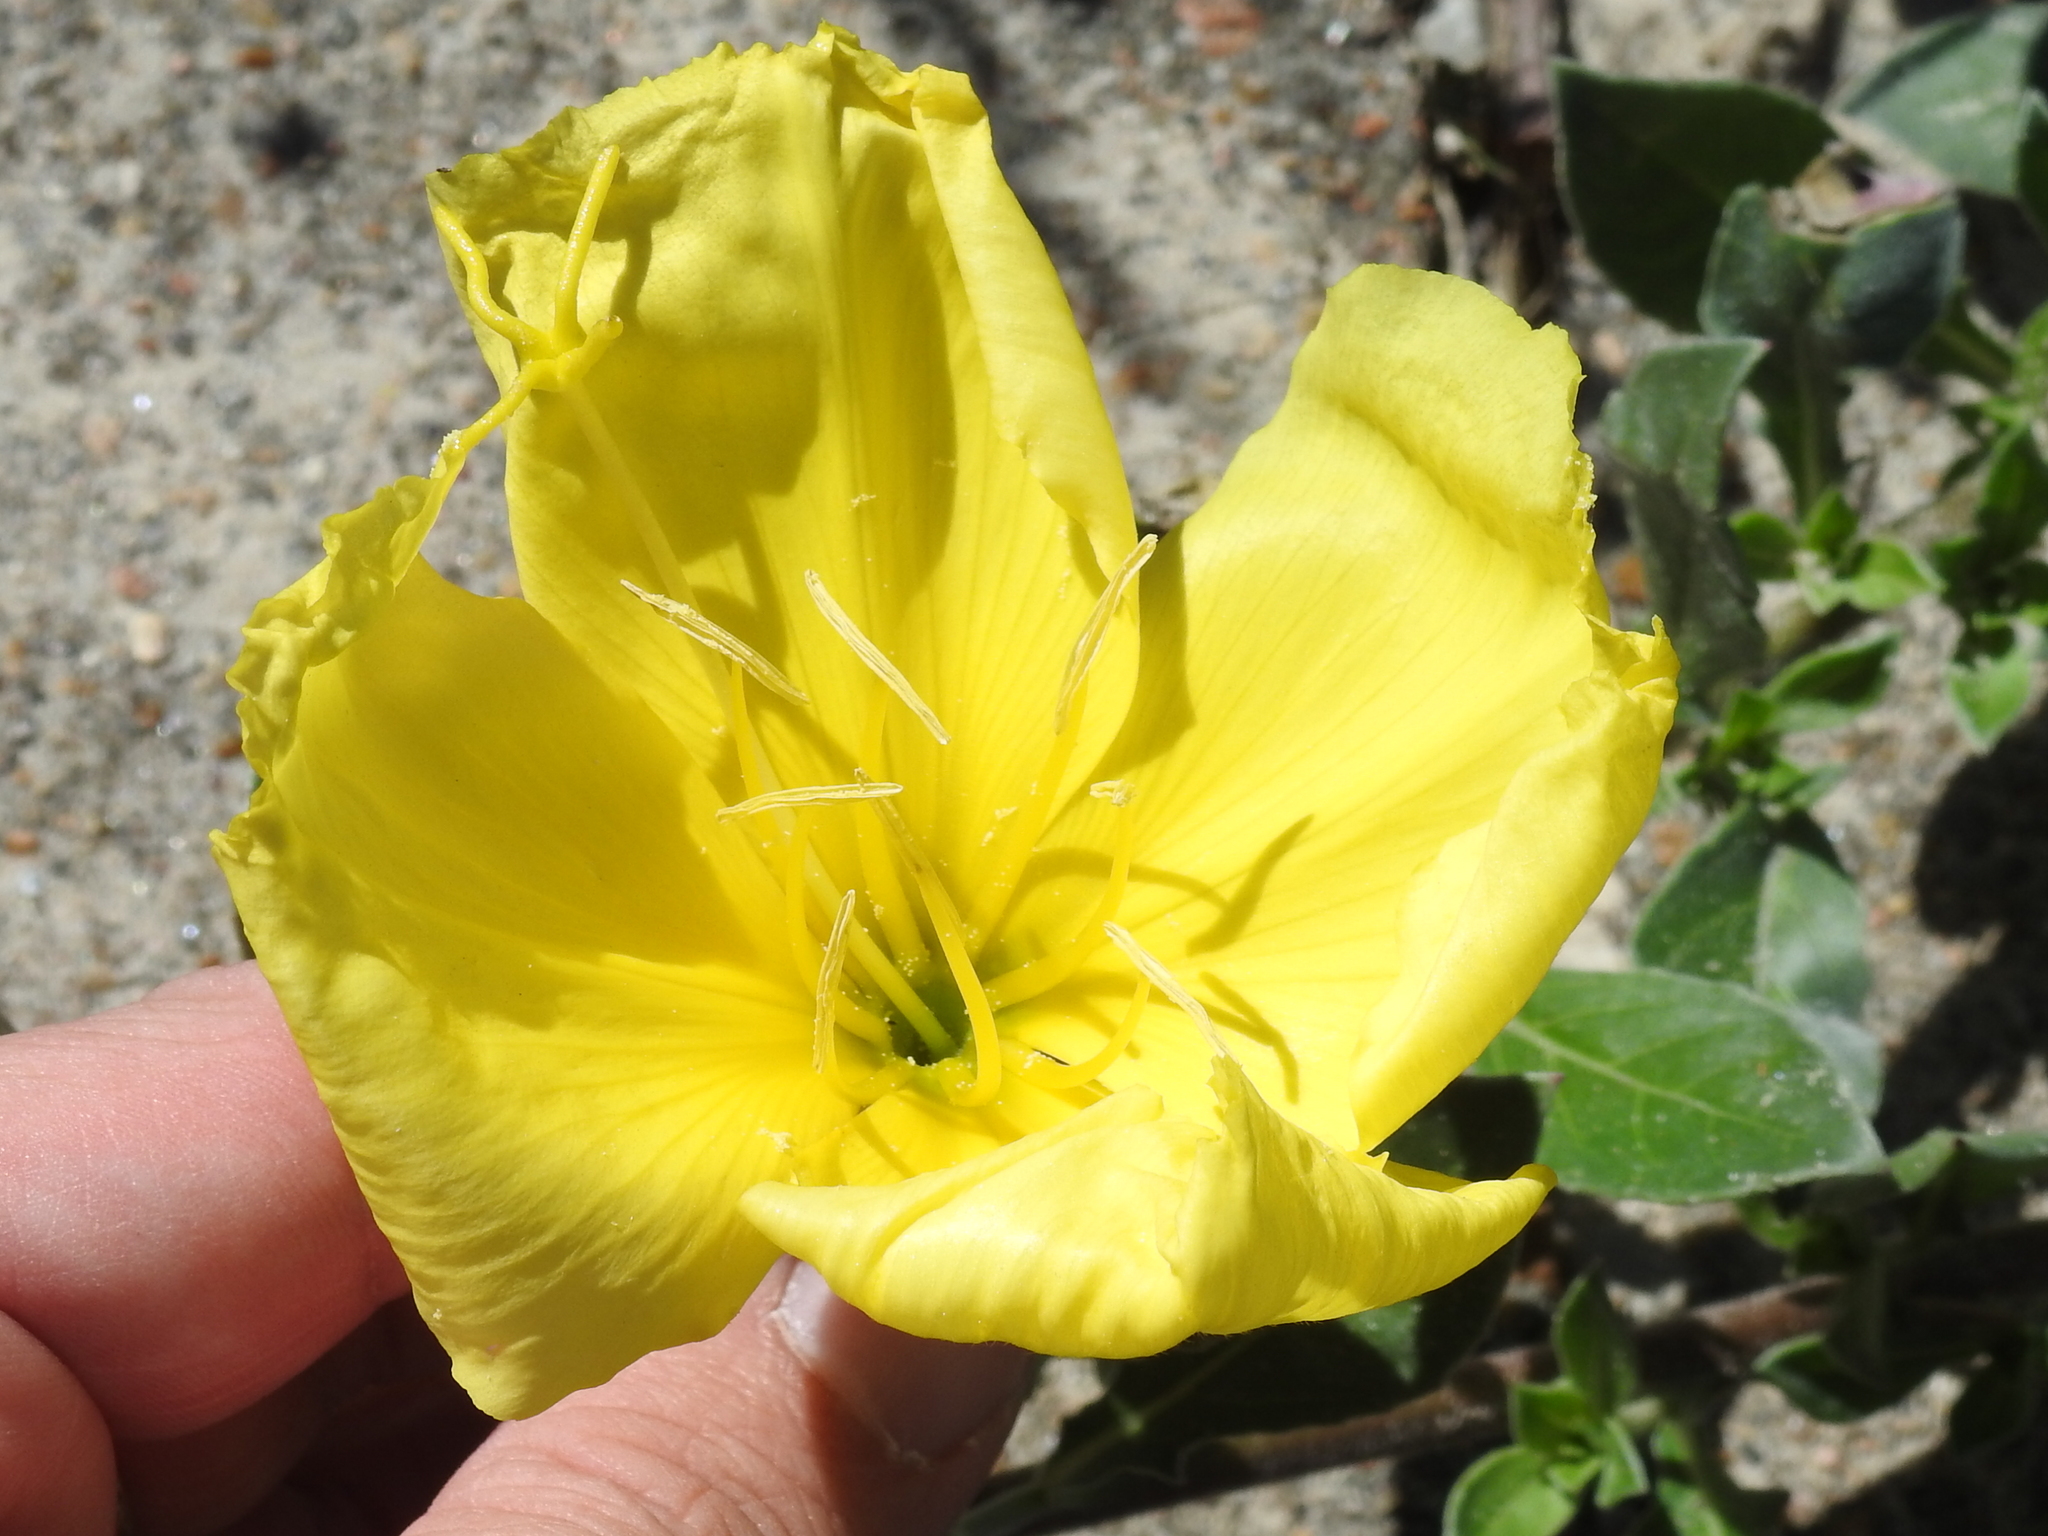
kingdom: Plantae
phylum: Tracheophyta
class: Magnoliopsida
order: Myrtales
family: Onagraceae
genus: Oenothera
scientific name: Oenothera drummondii
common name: Beach evening-primrose
